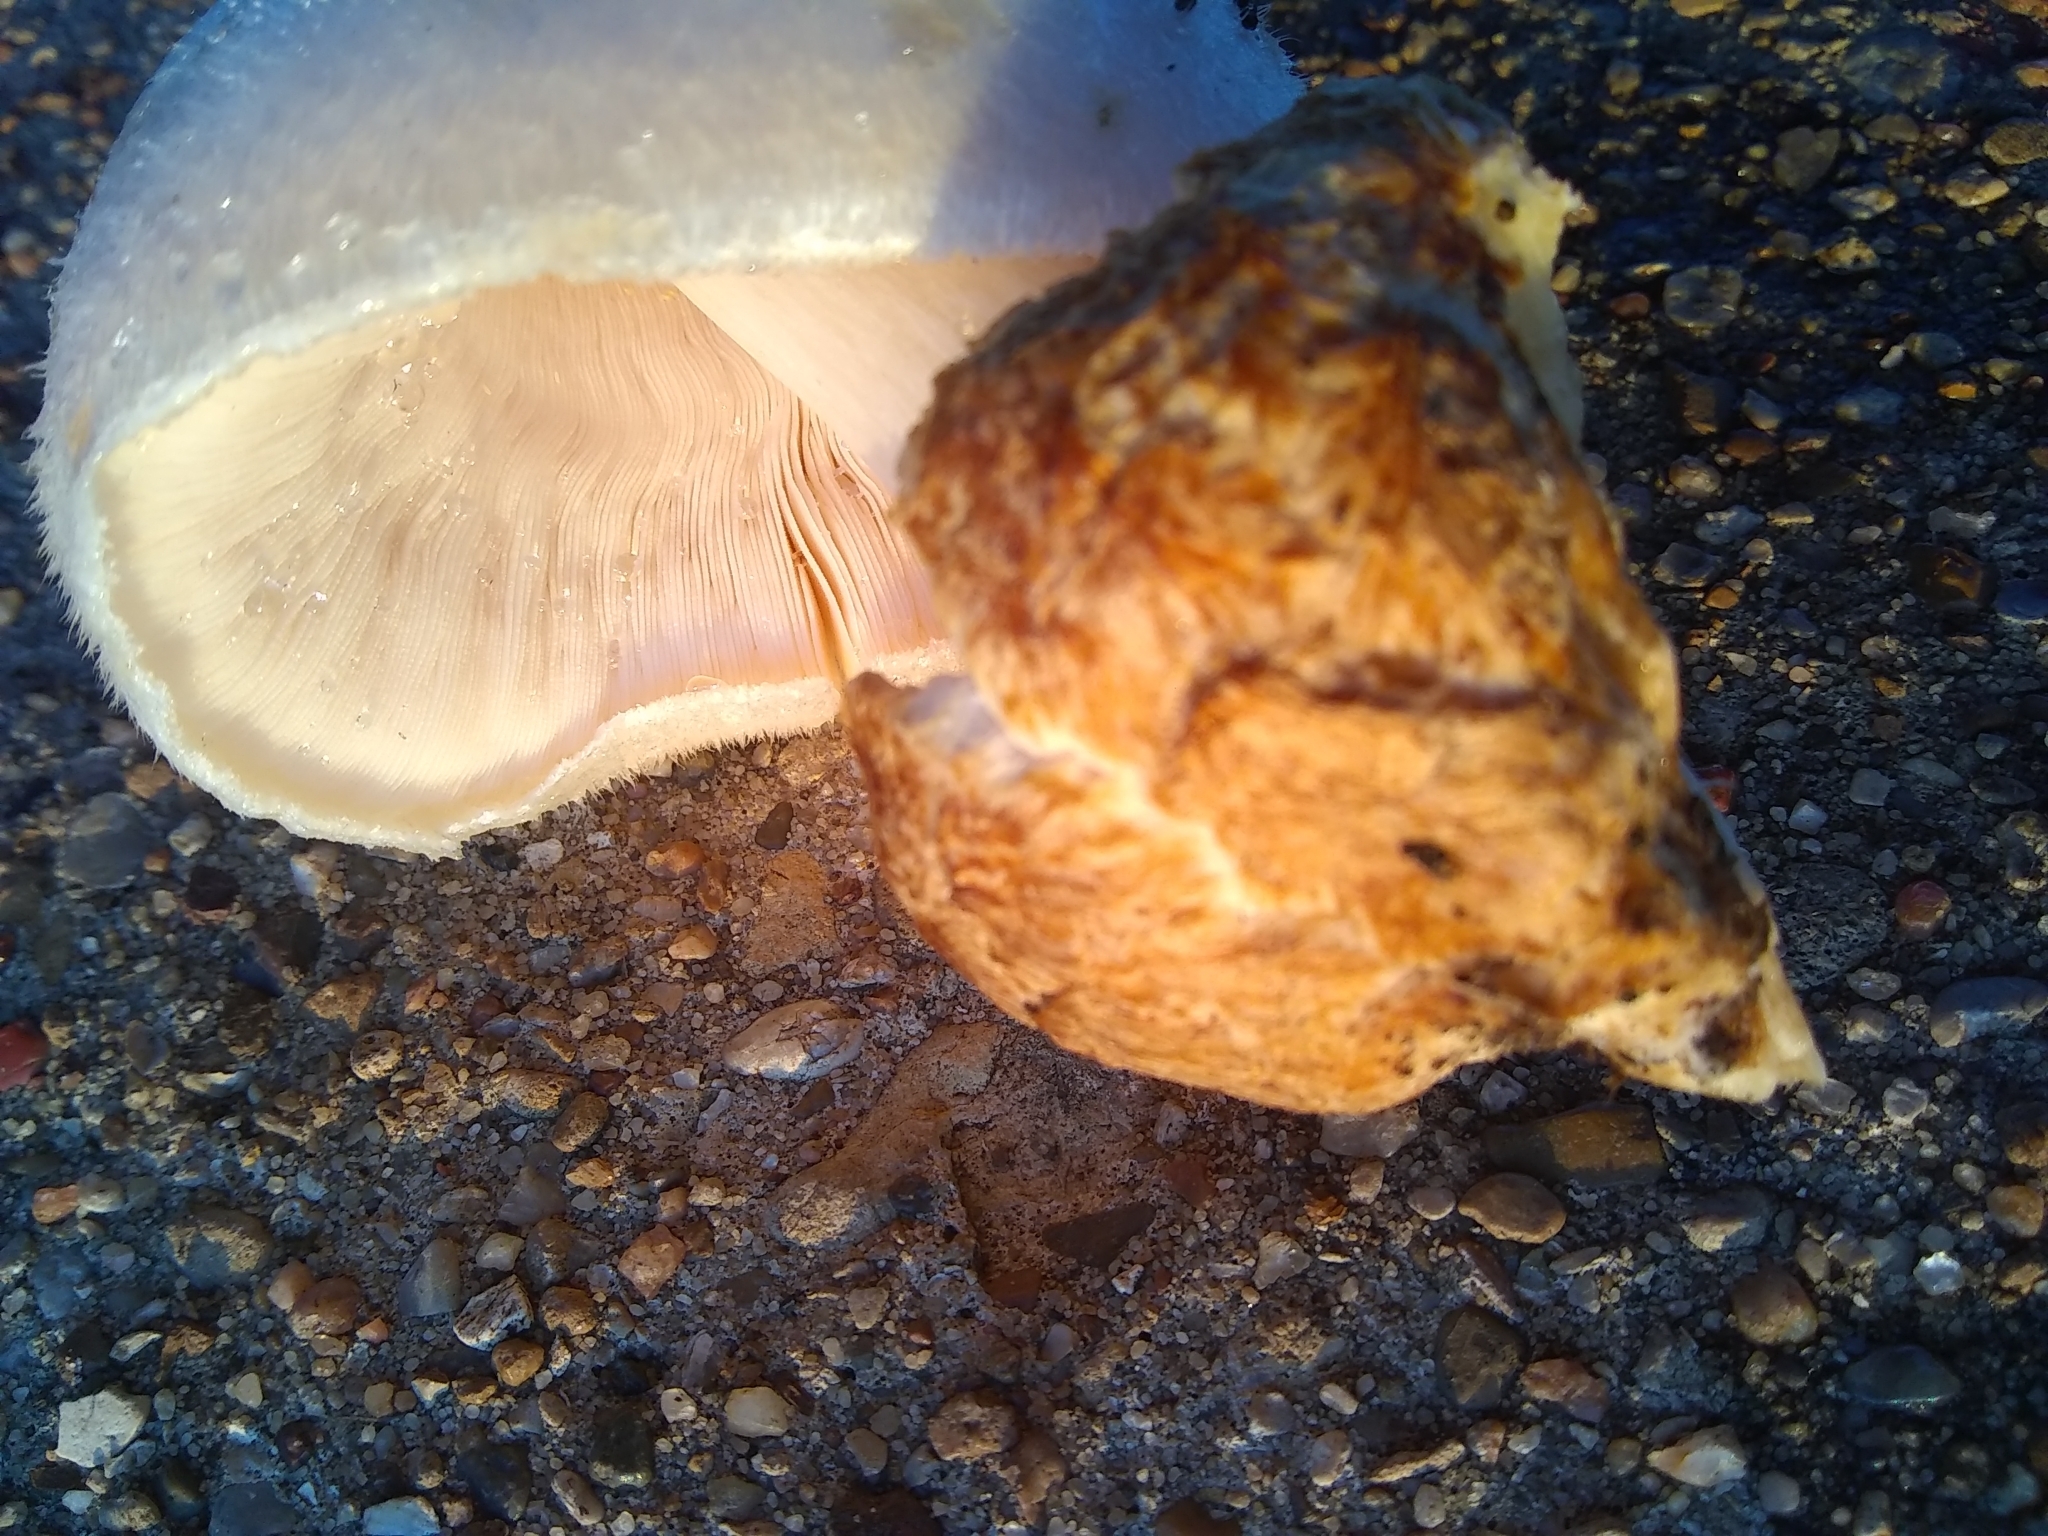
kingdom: Fungi
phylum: Basidiomycota
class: Agaricomycetes
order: Agaricales
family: Pluteaceae
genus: Volvariella
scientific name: Volvariella bombycina
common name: Silky rosegill
